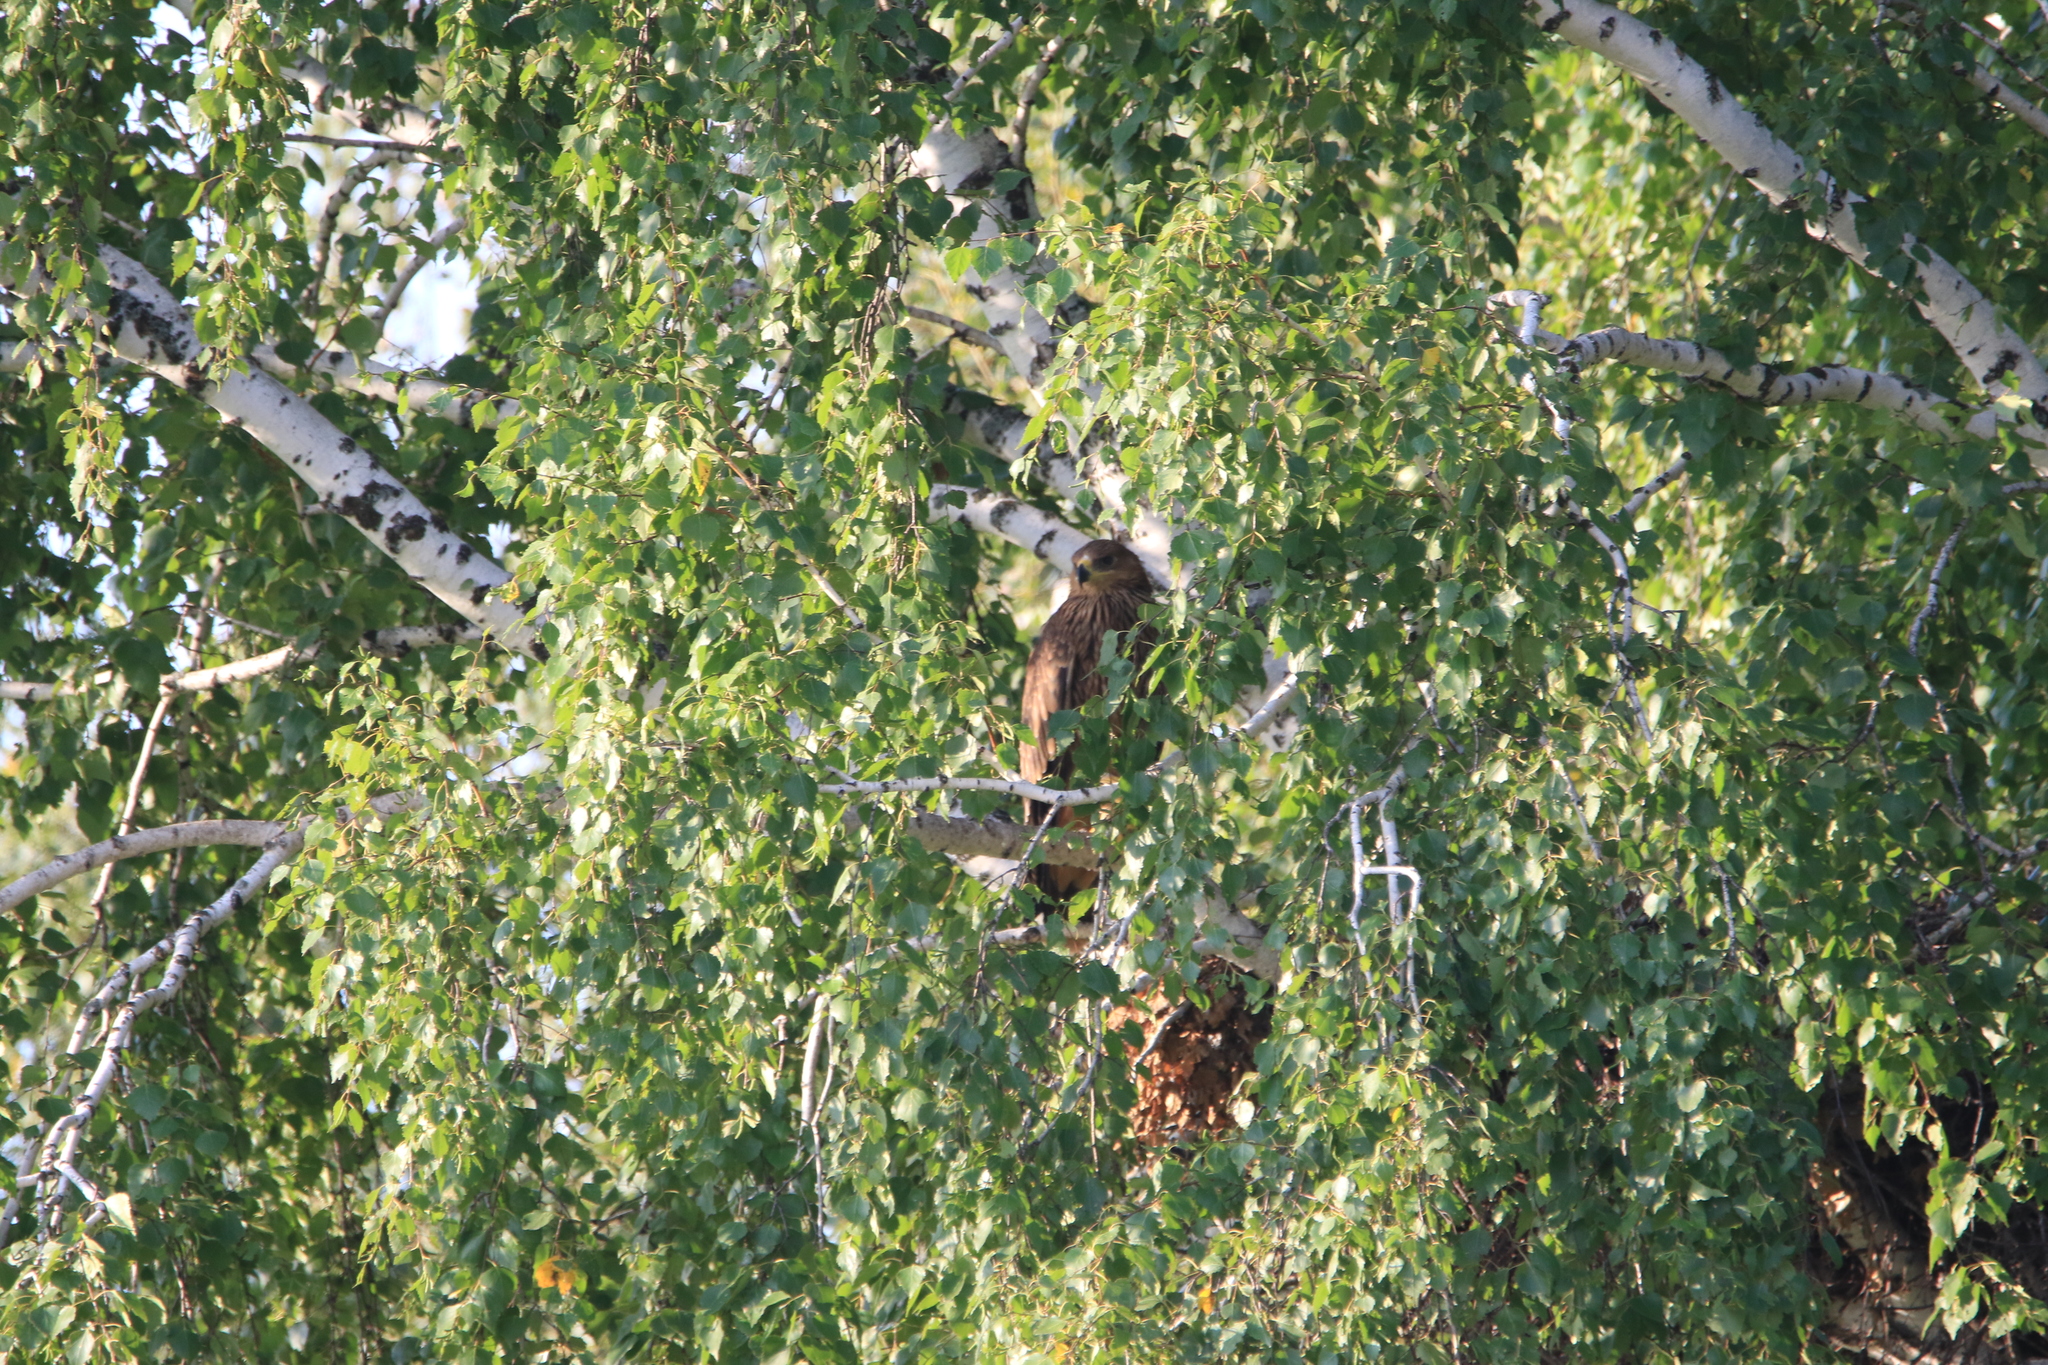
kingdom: Animalia
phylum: Chordata
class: Aves
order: Accipitriformes
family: Accipitridae
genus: Aquila
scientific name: Aquila heliaca
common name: Eastern imperial eagle
